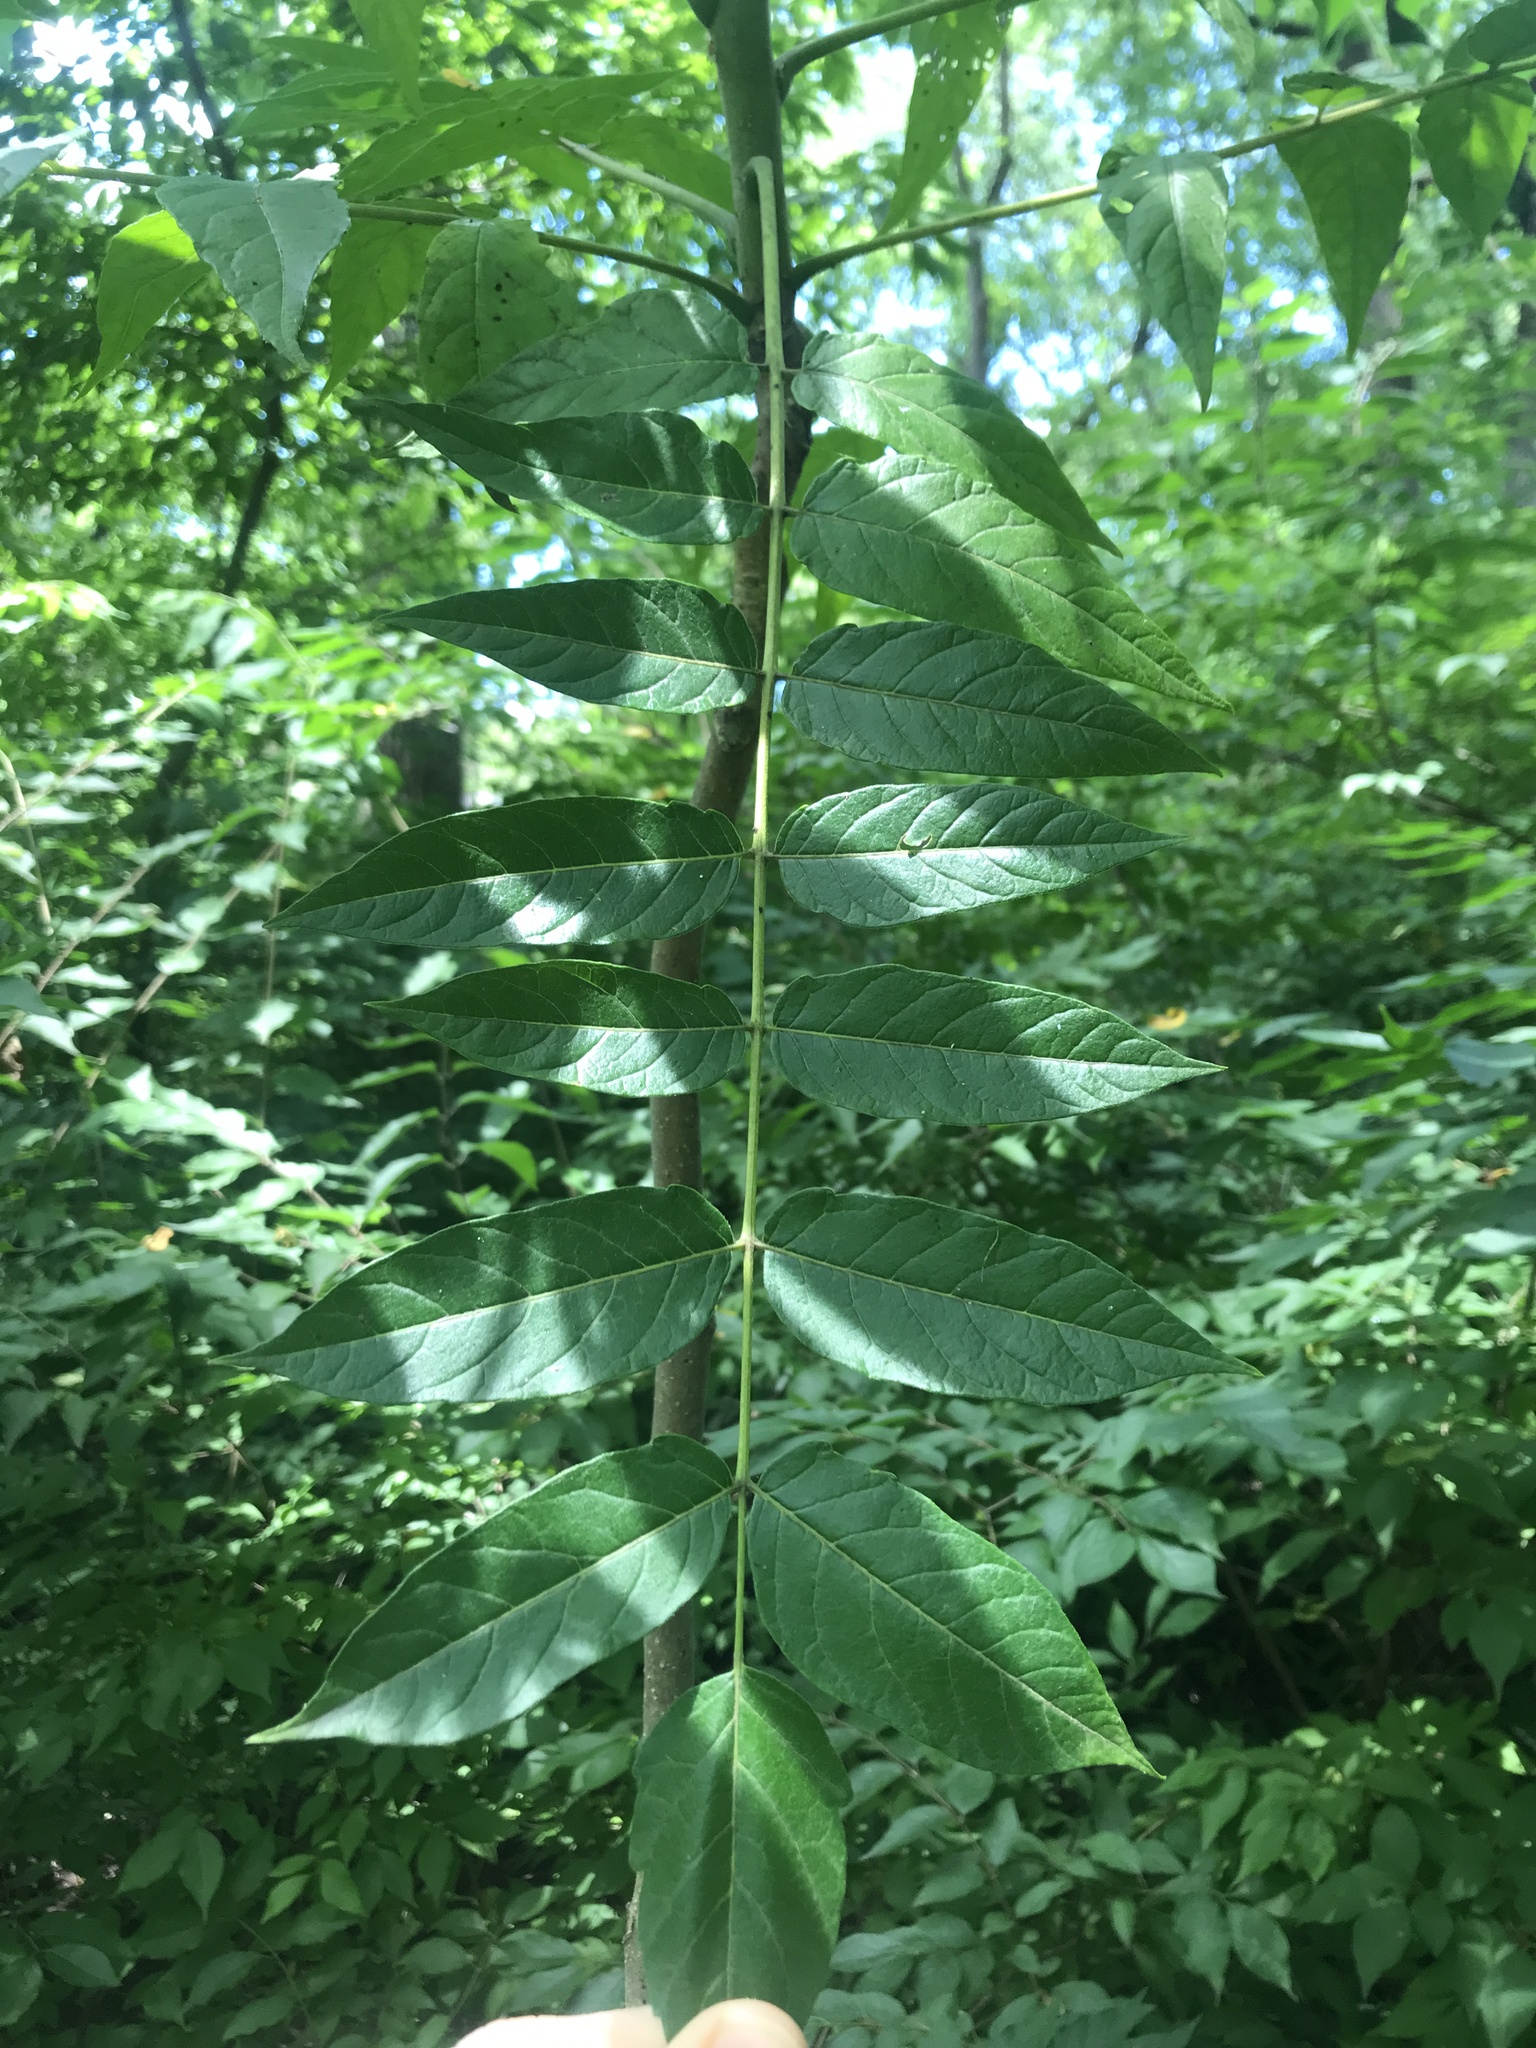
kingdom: Plantae
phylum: Tracheophyta
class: Magnoliopsida
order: Sapindales
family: Simaroubaceae
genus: Ailanthus
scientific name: Ailanthus altissima
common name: Tree-of-heaven
